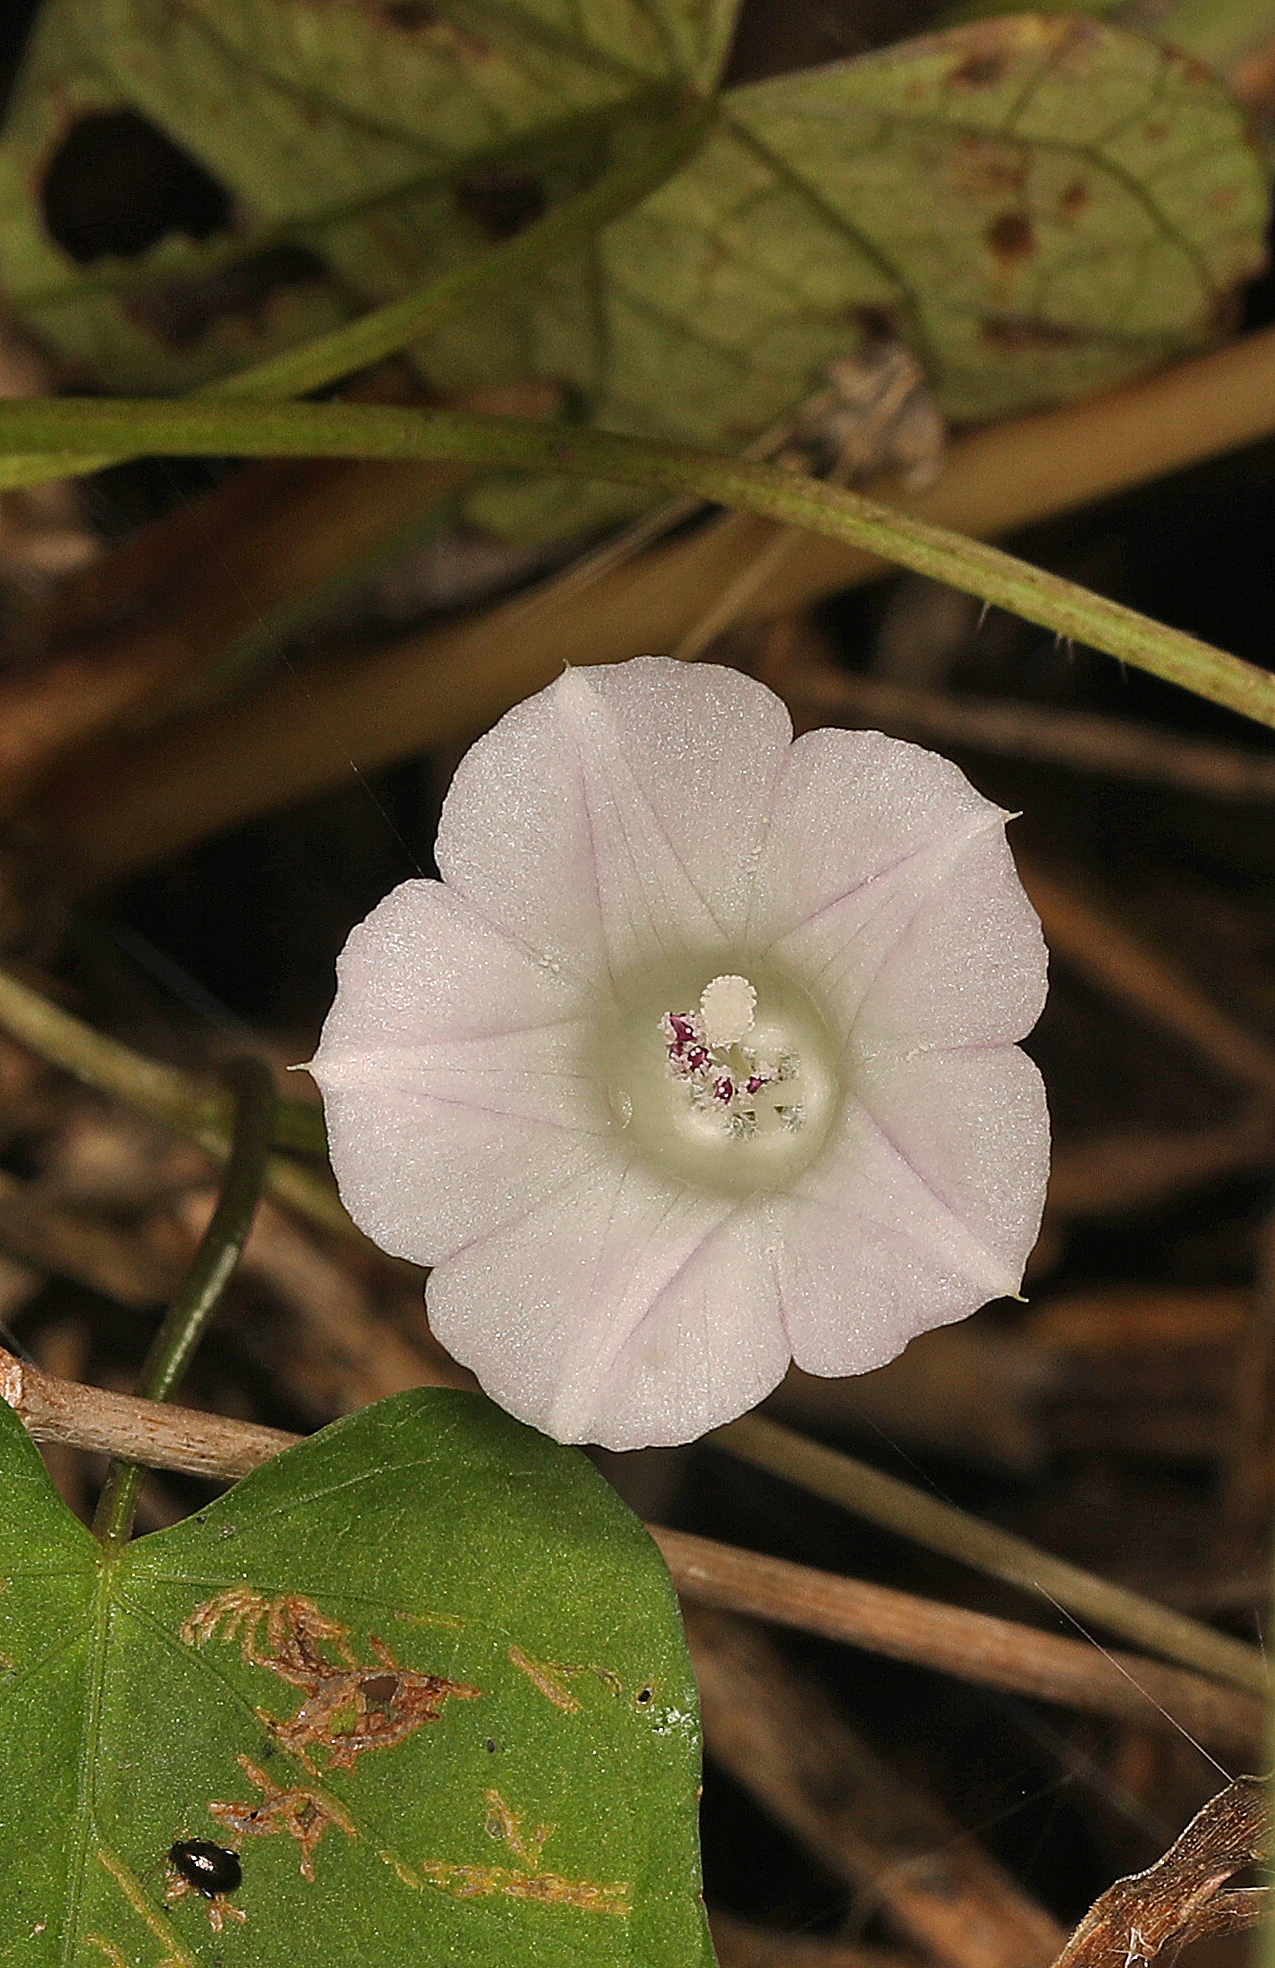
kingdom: Plantae
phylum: Tracheophyta
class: Magnoliopsida
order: Solanales
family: Convolvulaceae
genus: Ipomoea
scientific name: Ipomoea lacunosa
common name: White morning-glory
